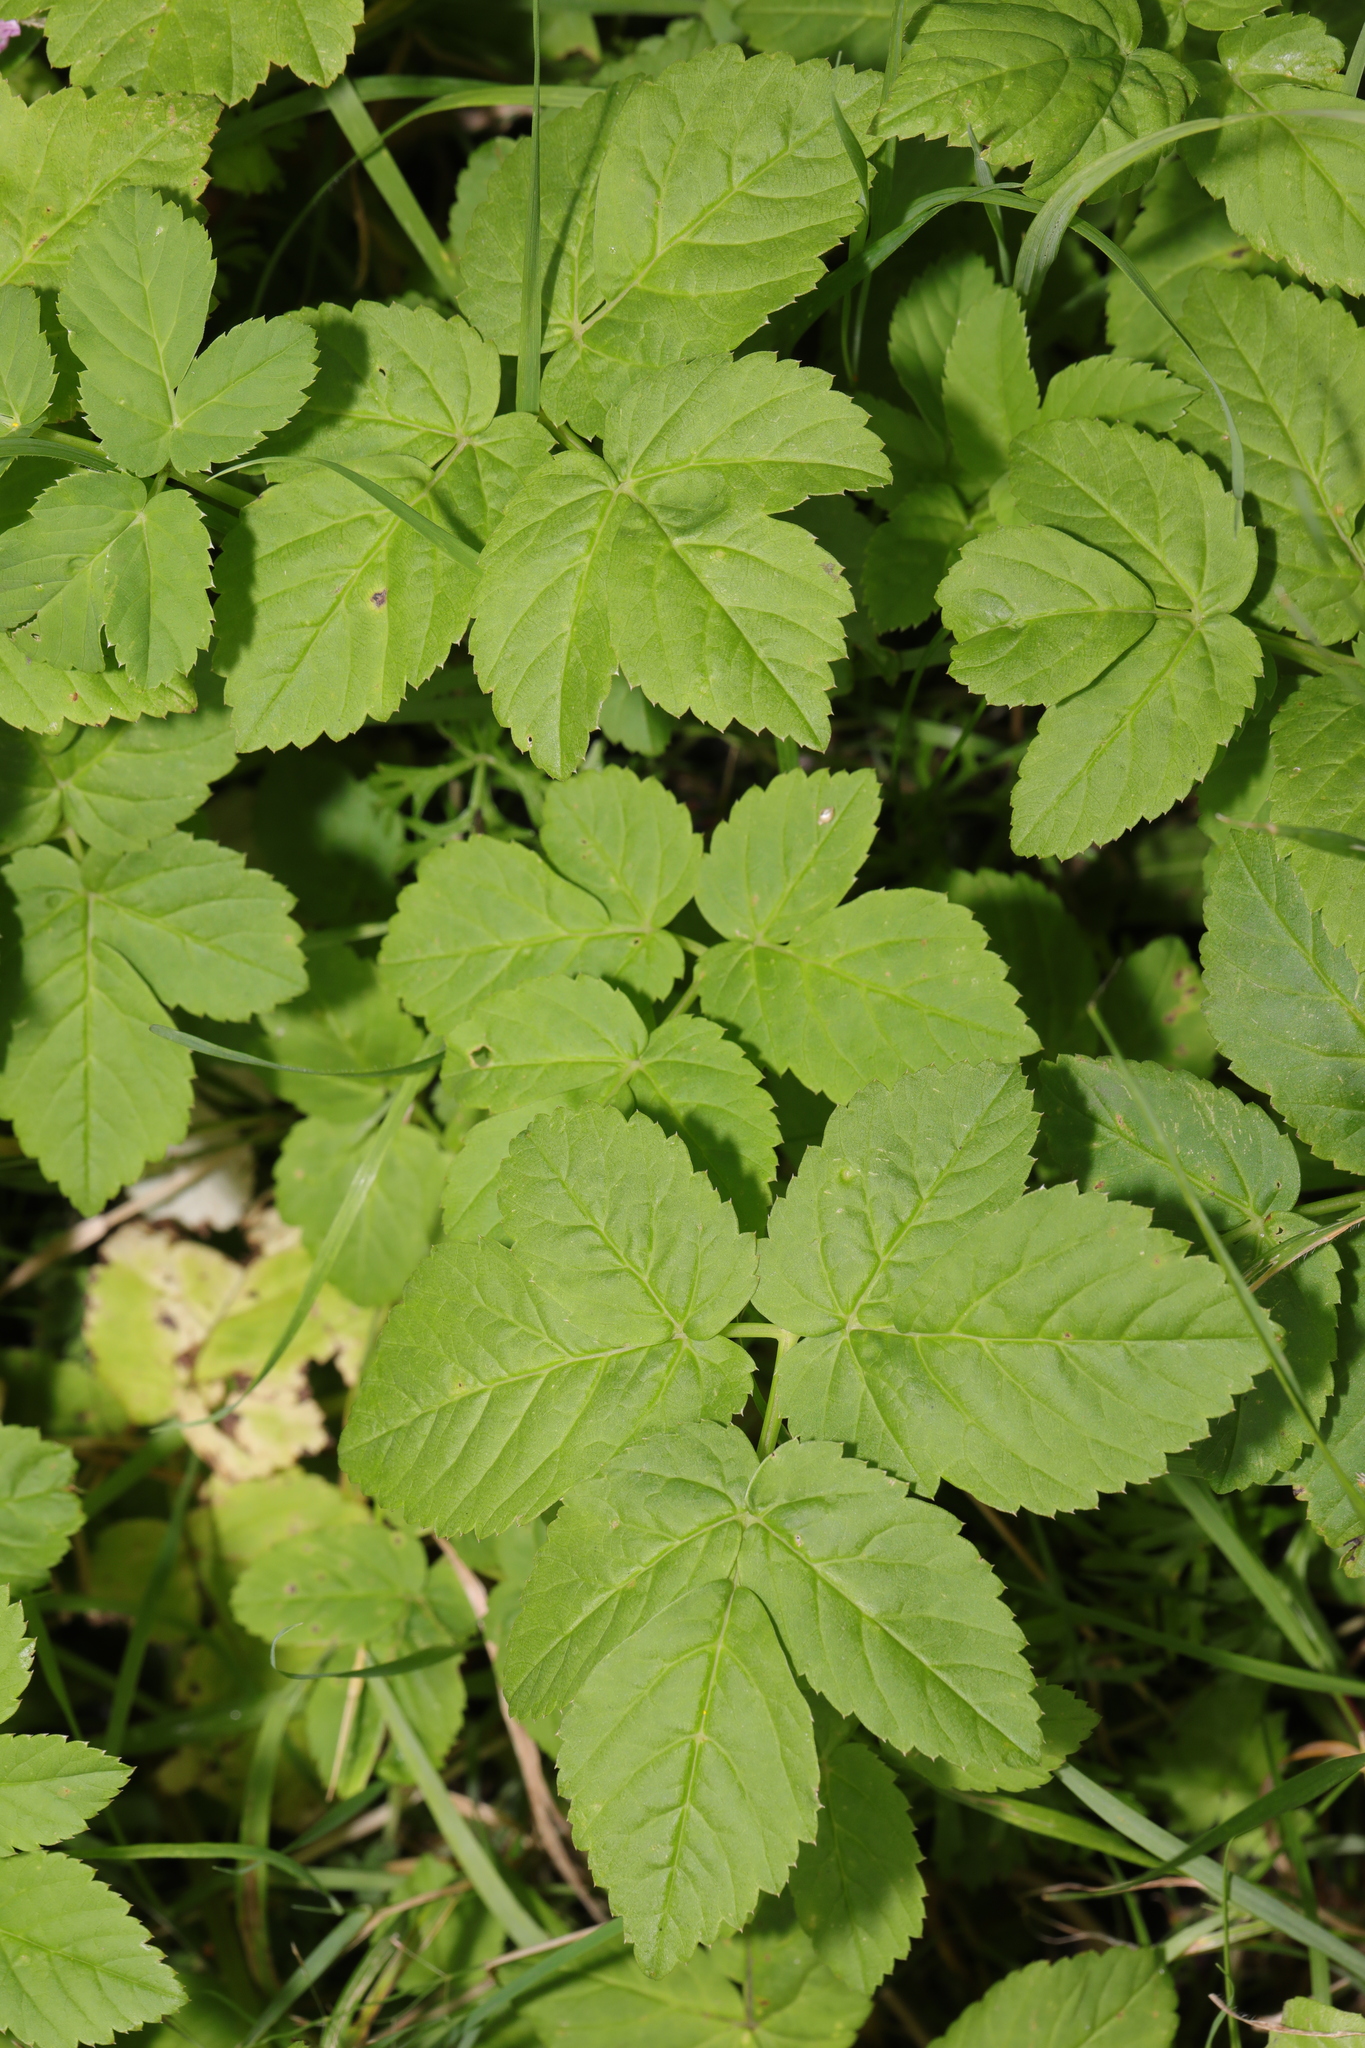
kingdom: Plantae
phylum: Tracheophyta
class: Magnoliopsida
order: Apiales
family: Apiaceae
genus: Aegopodium
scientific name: Aegopodium podagraria
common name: Ground-elder
